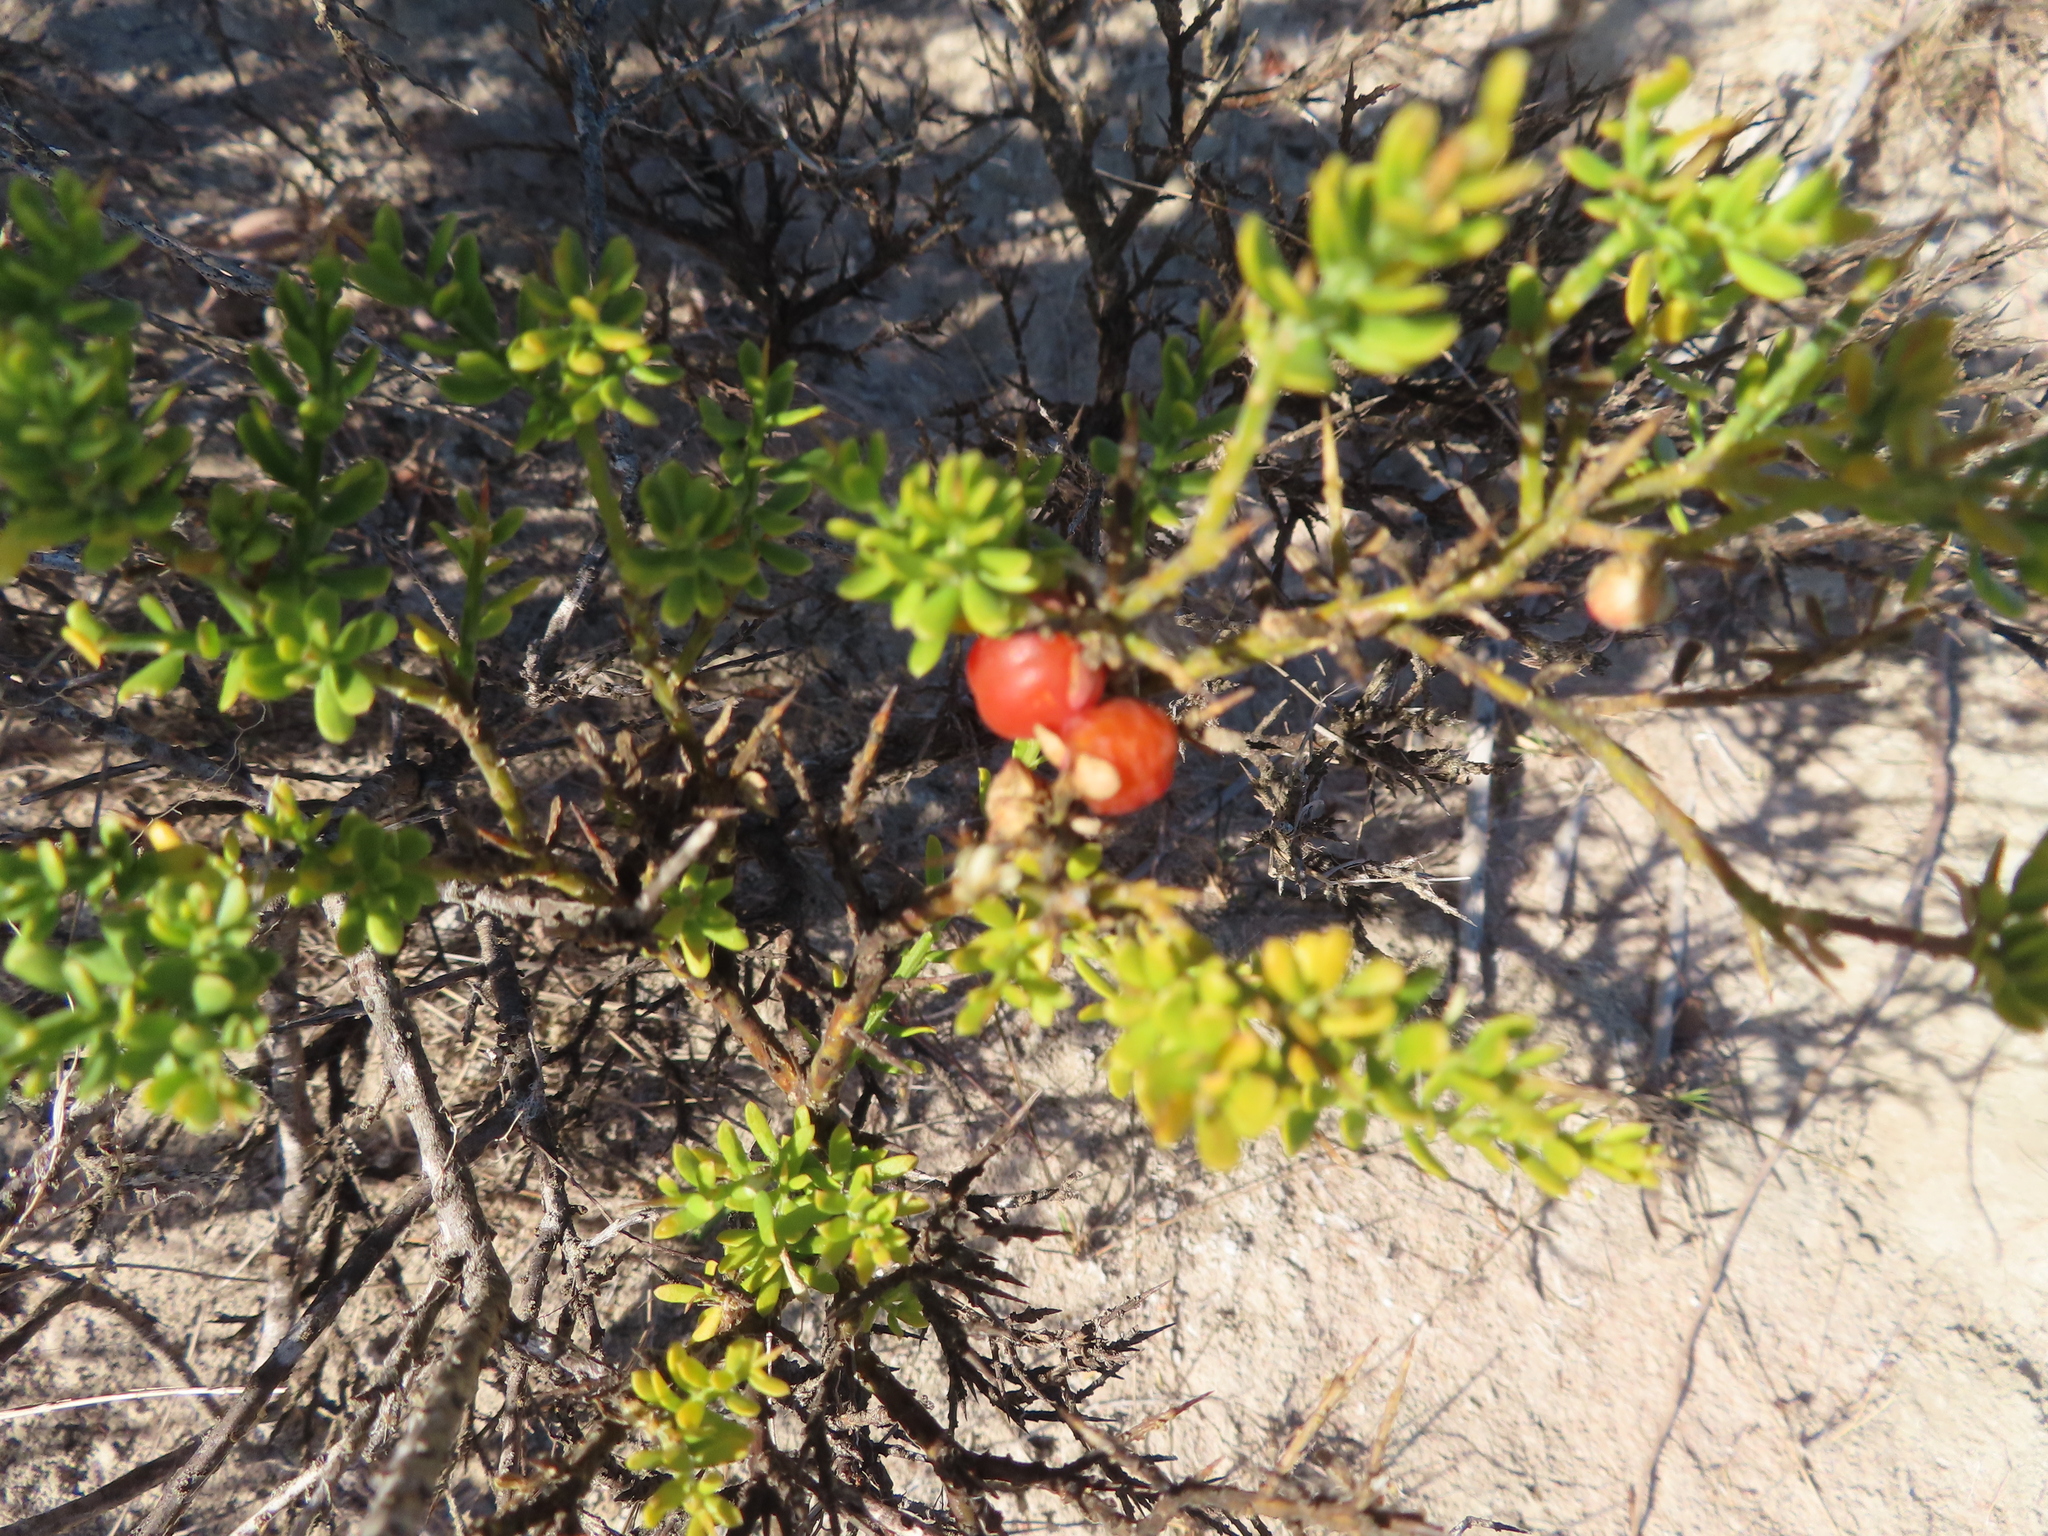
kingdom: Plantae
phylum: Tracheophyta
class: Magnoliopsida
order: Fabales
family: Polygalaceae
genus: Muraltia
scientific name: Muraltia spinosa
